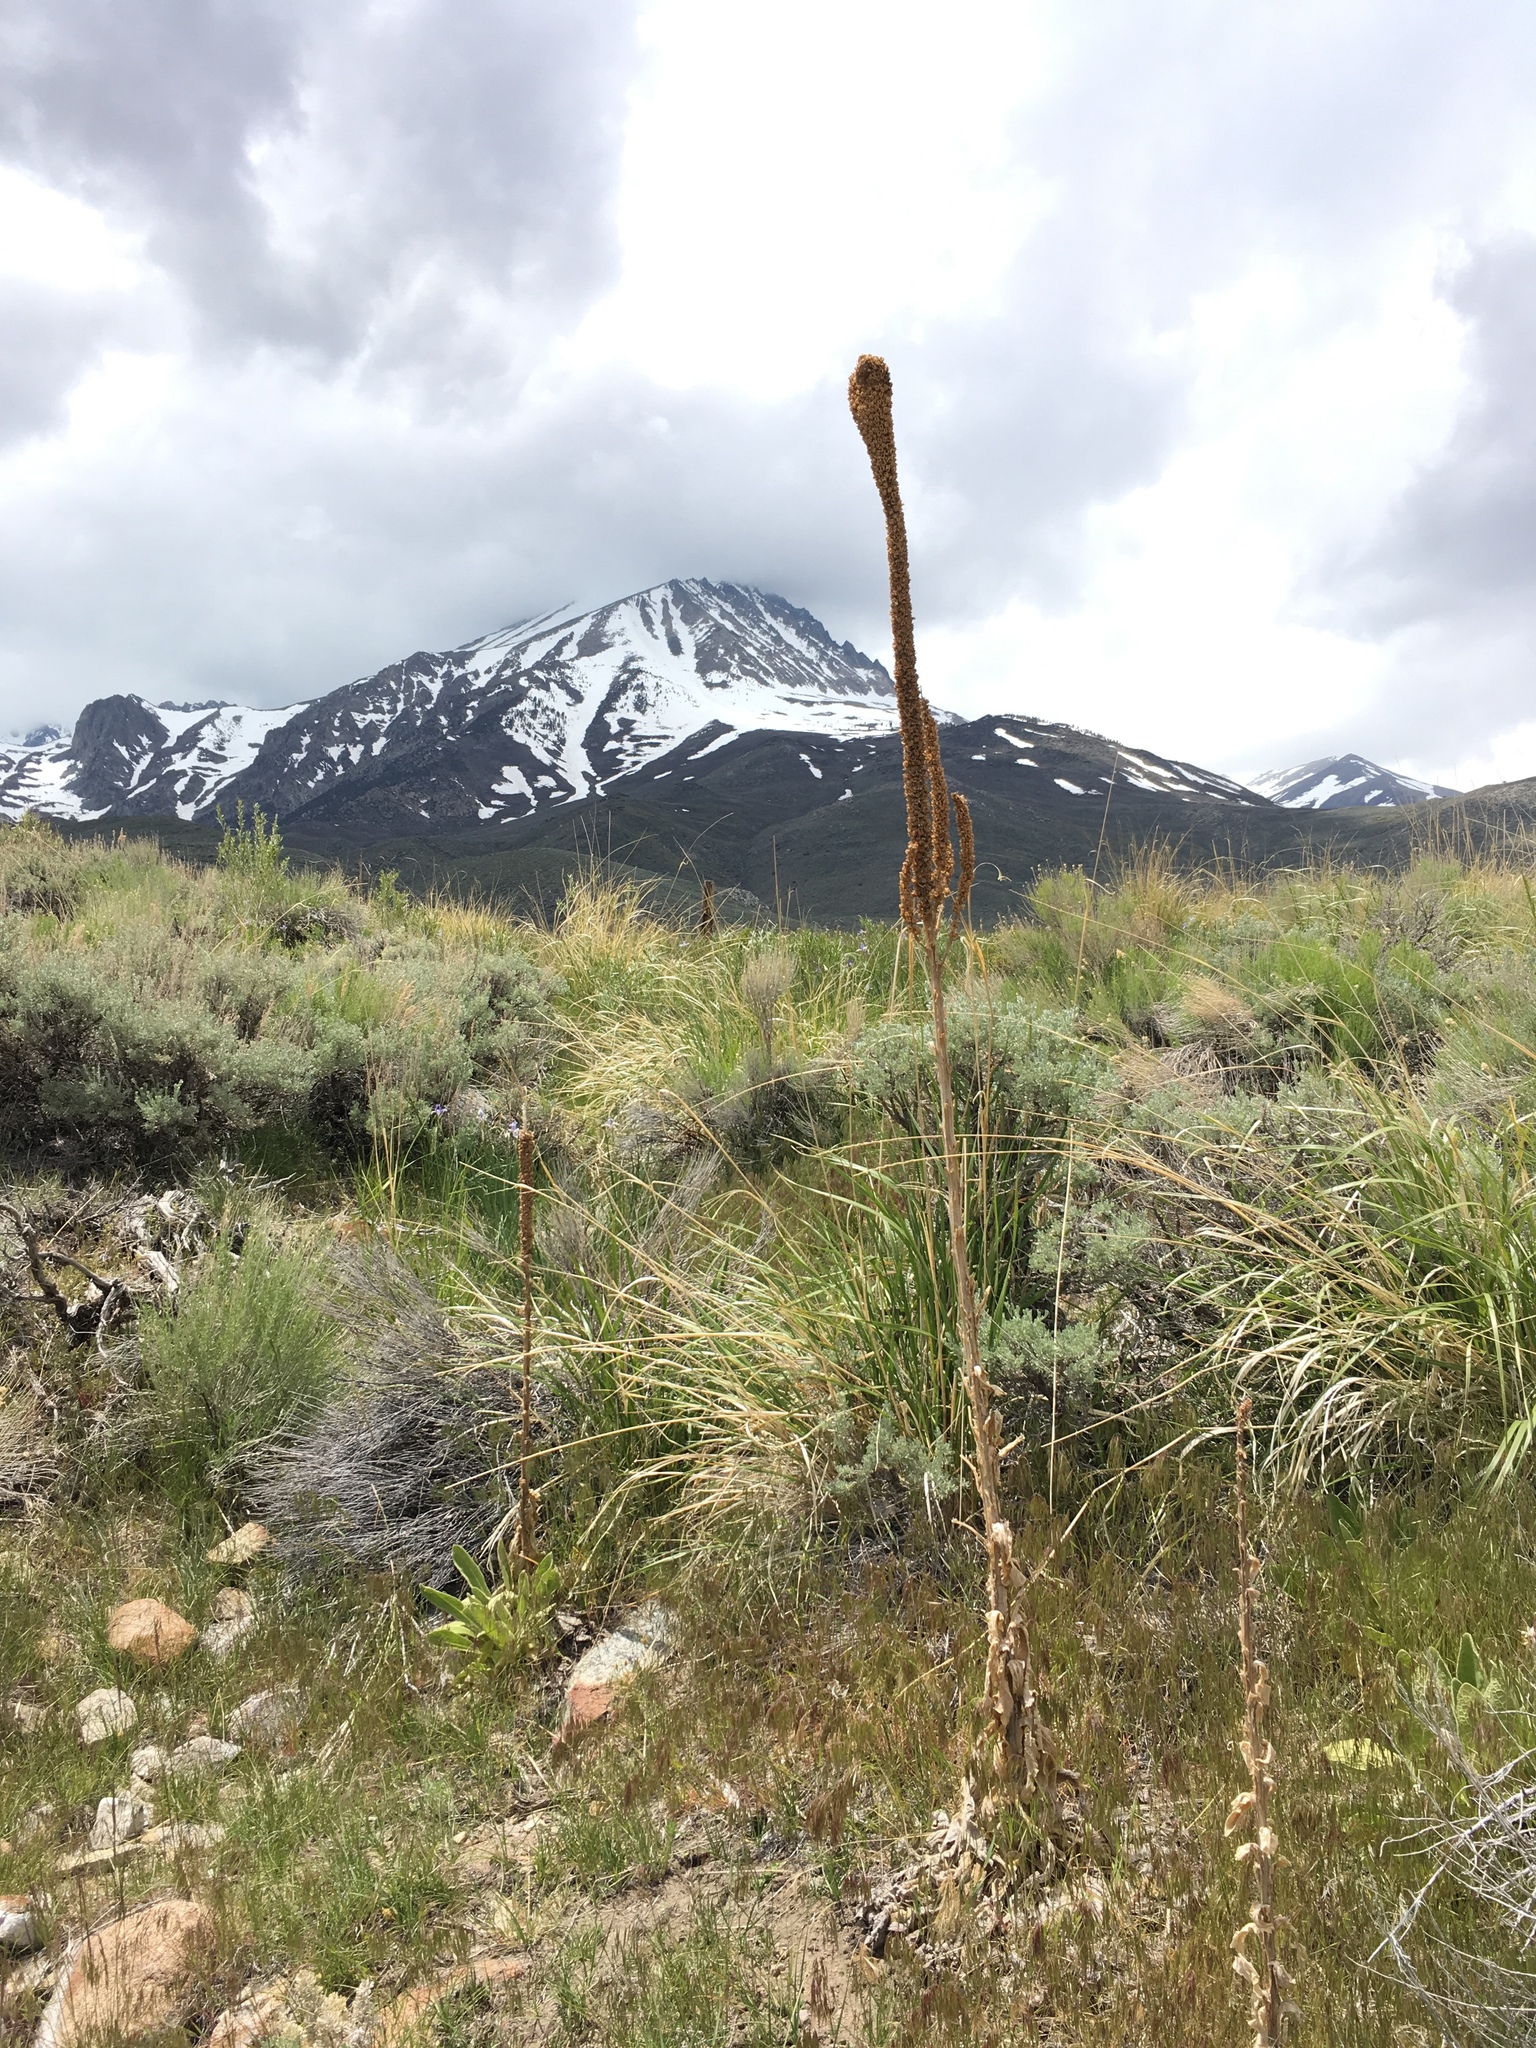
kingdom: Plantae
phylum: Tracheophyta
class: Magnoliopsida
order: Lamiales
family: Scrophulariaceae
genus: Verbascum
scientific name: Verbascum thapsus
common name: Common mullein
